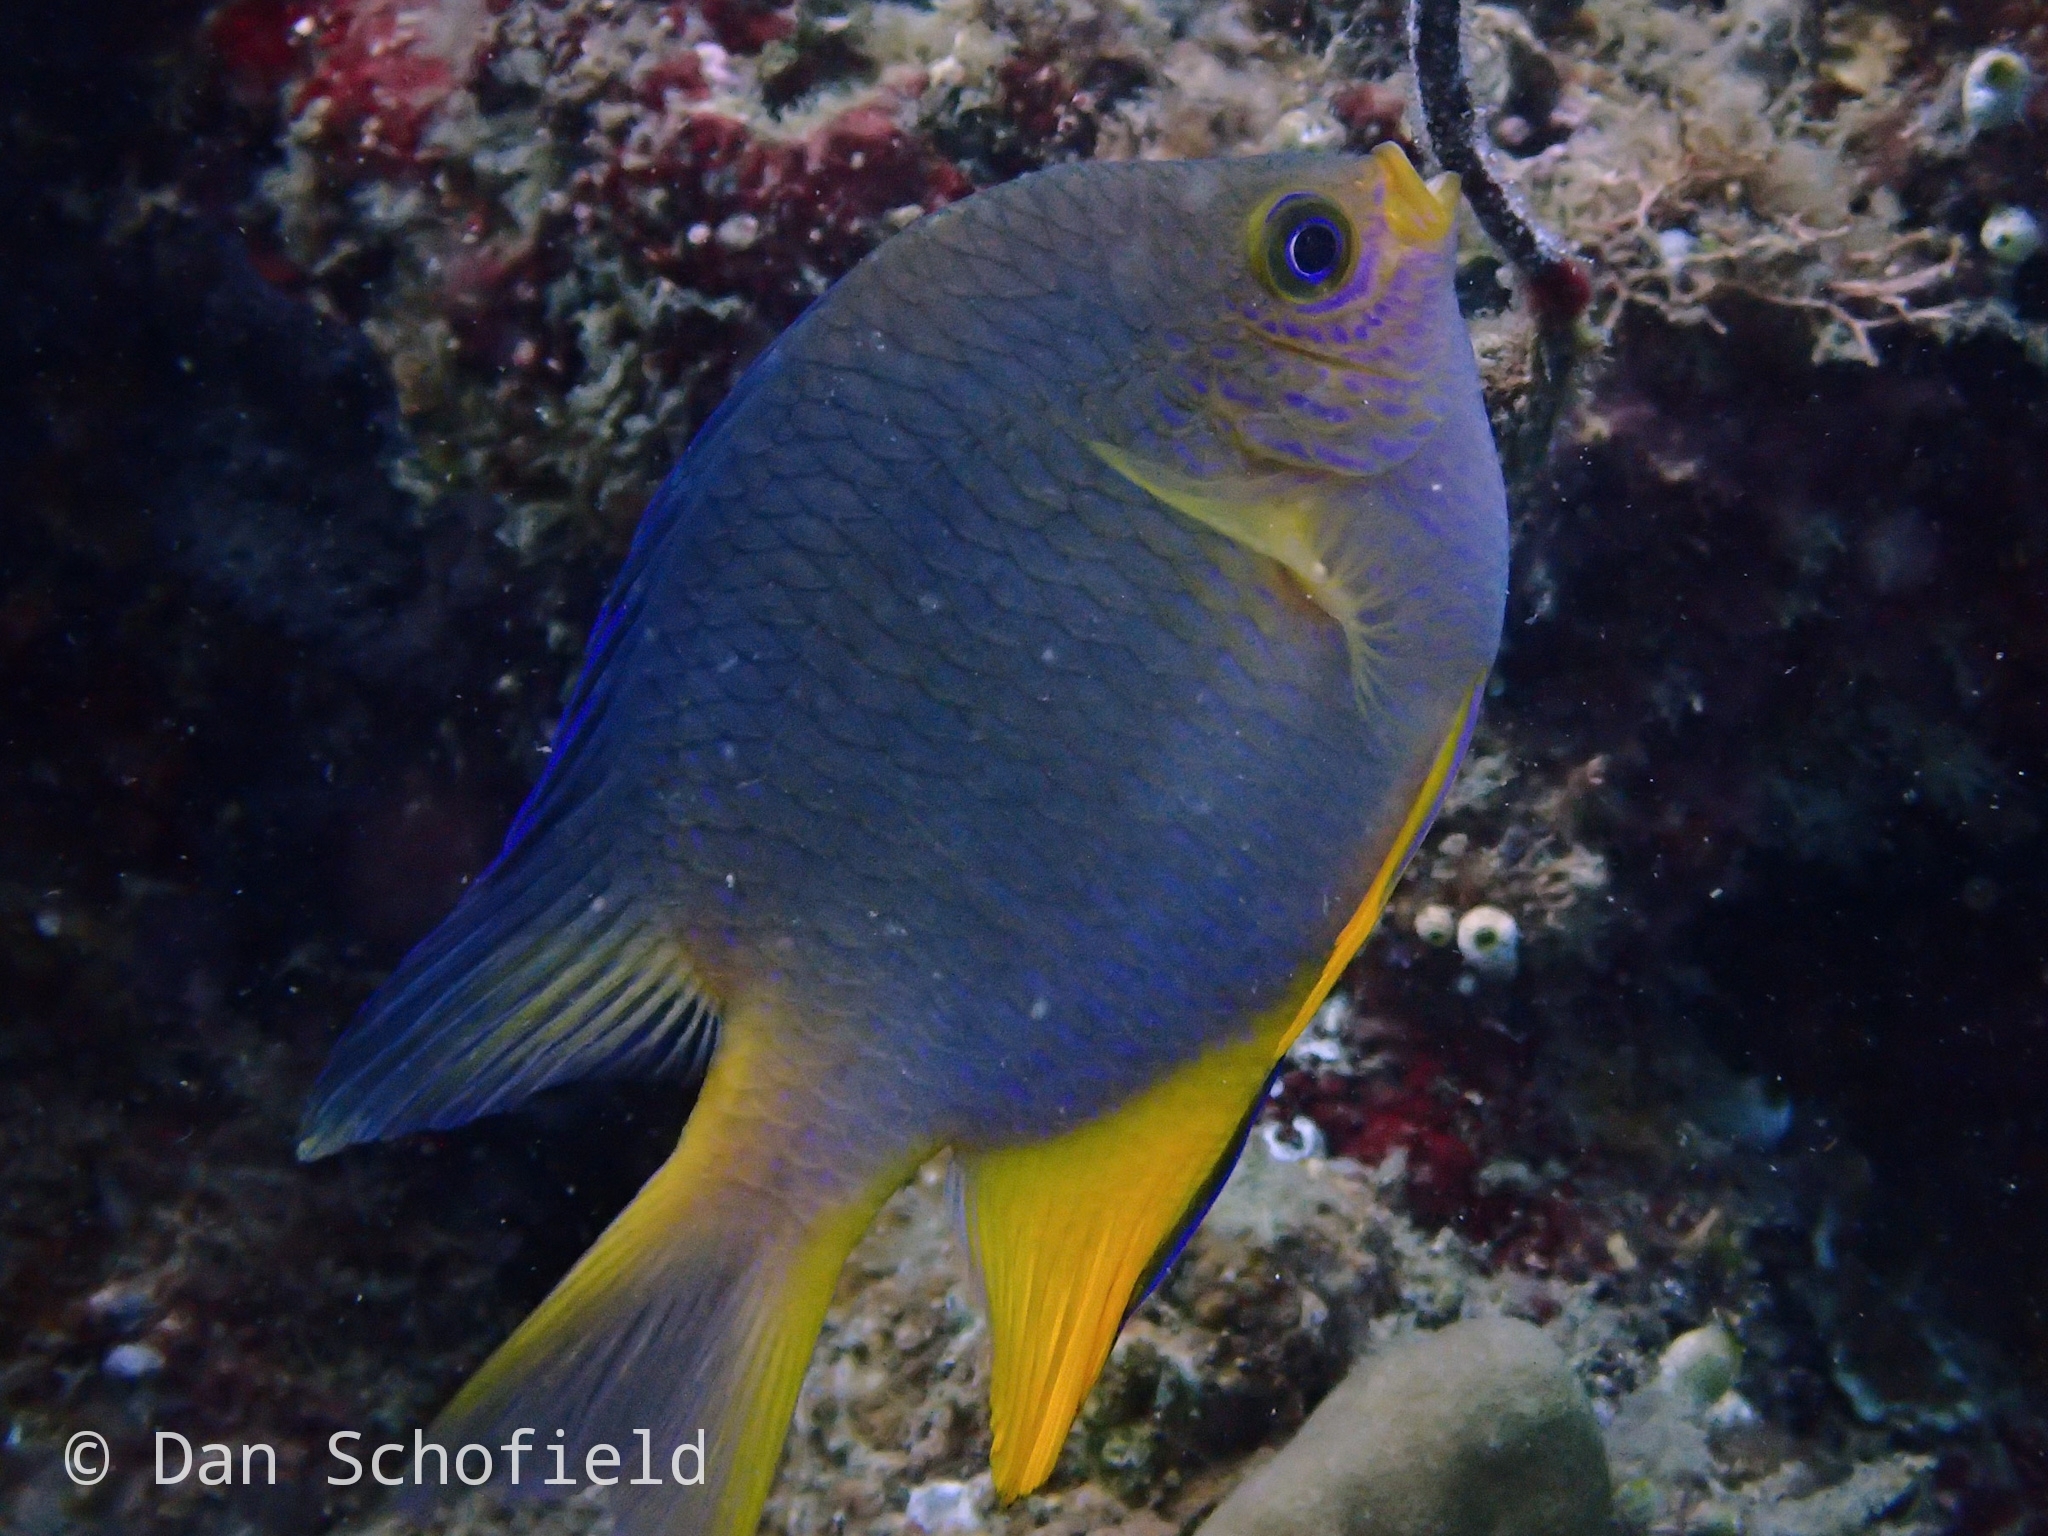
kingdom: Animalia
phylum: Chordata
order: Perciformes
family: Pomacentridae
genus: Amblyglyphidodon
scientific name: Amblyglyphidodon aureus
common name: Golden damsel
